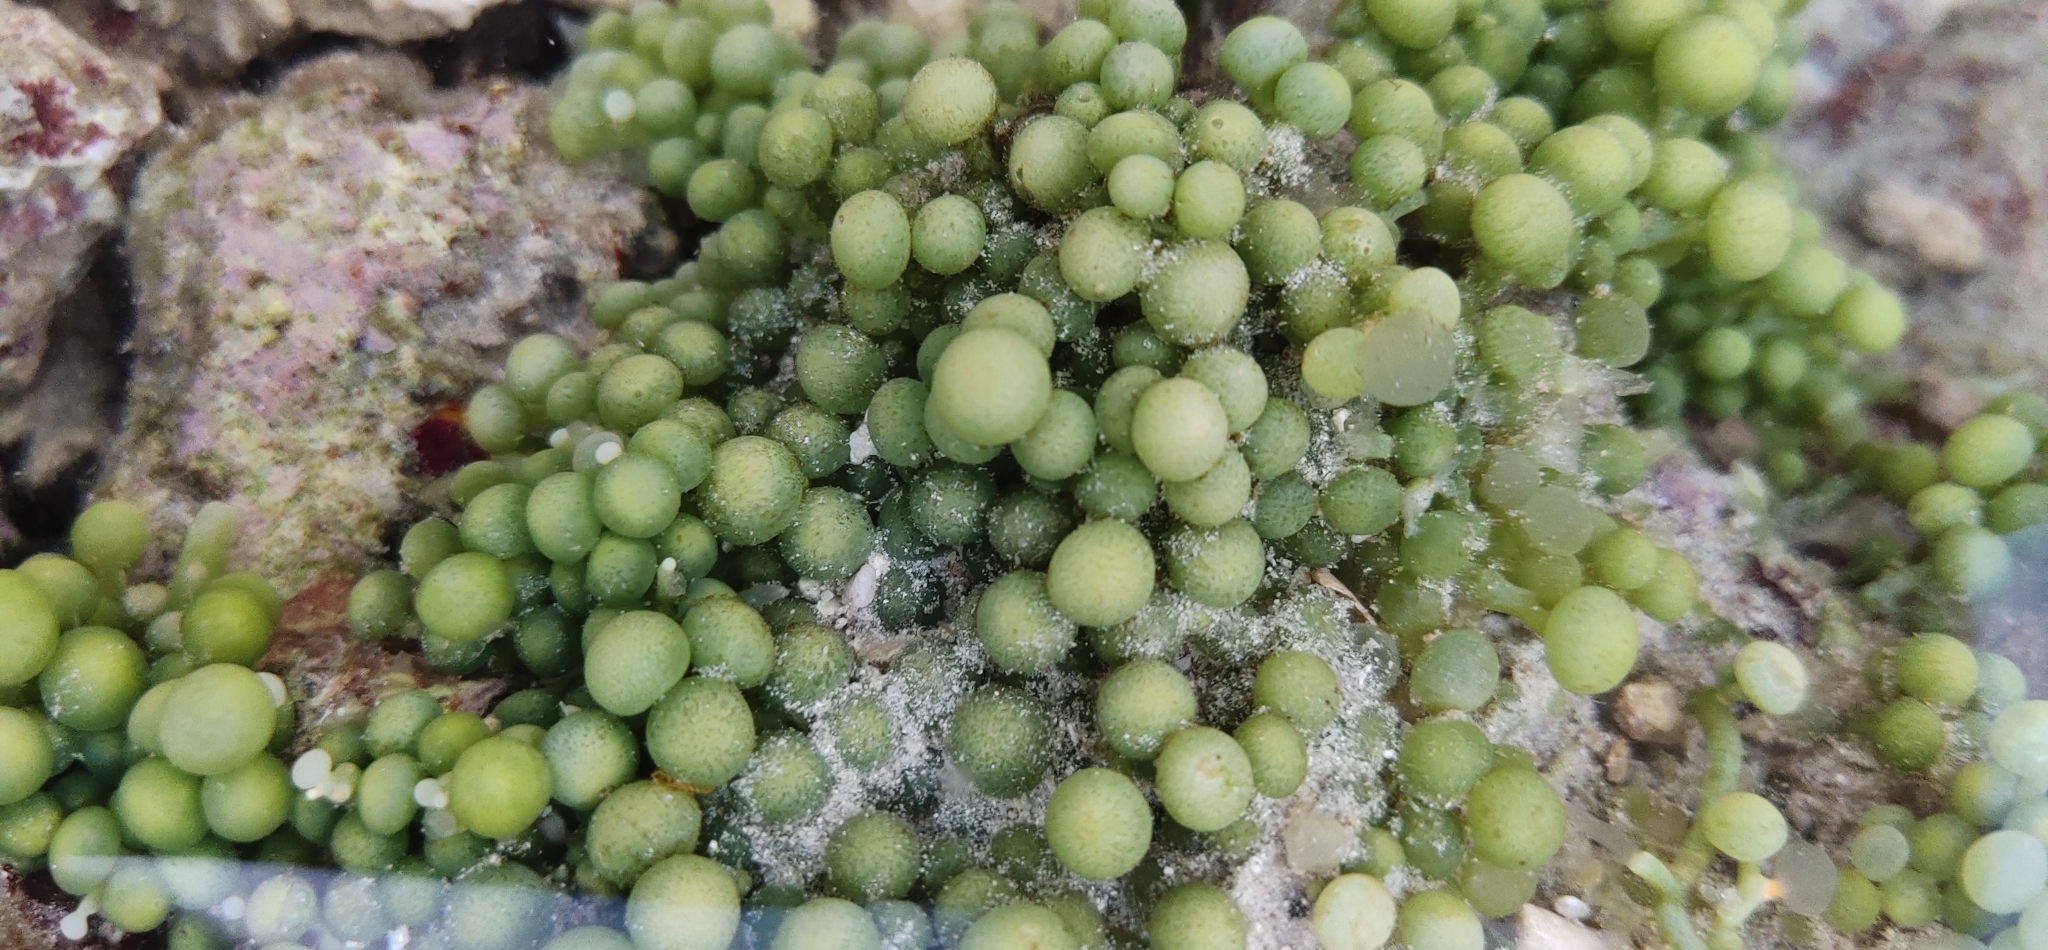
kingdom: Plantae
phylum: Chlorophyta
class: Ulvophyceae
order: Bryopsidales
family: Caulerpaceae
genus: Caulerpa
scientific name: Caulerpa racemosa
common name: Green grape algae
